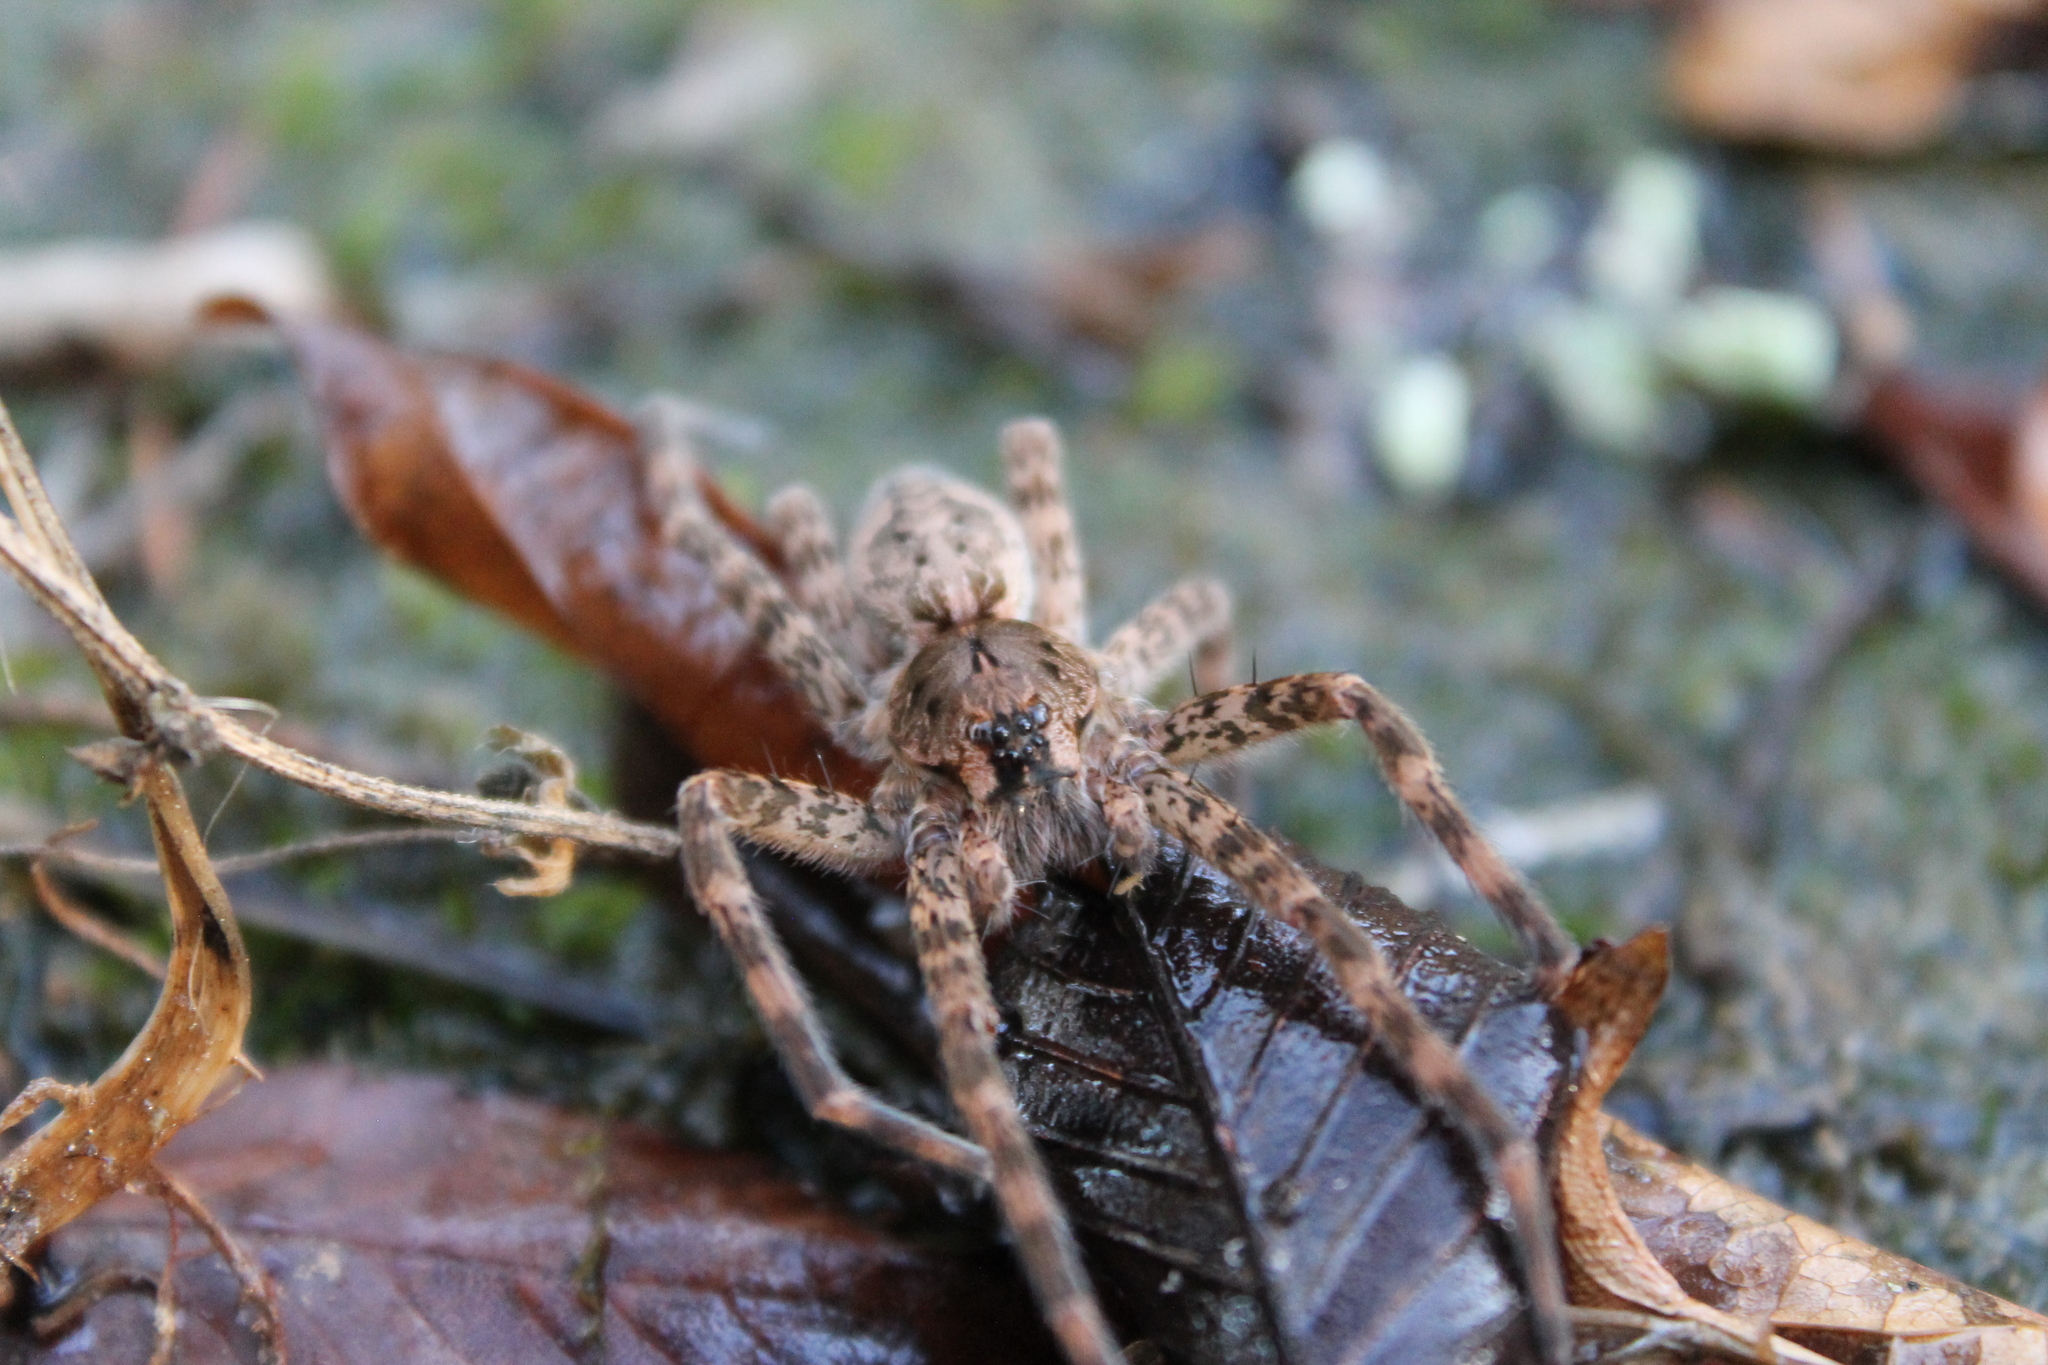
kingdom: Animalia
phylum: Arthropoda
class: Arachnida
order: Araneae
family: Pisauridae
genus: Dolomedes
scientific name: Dolomedes tenebrosus
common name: Dark fishing spider
